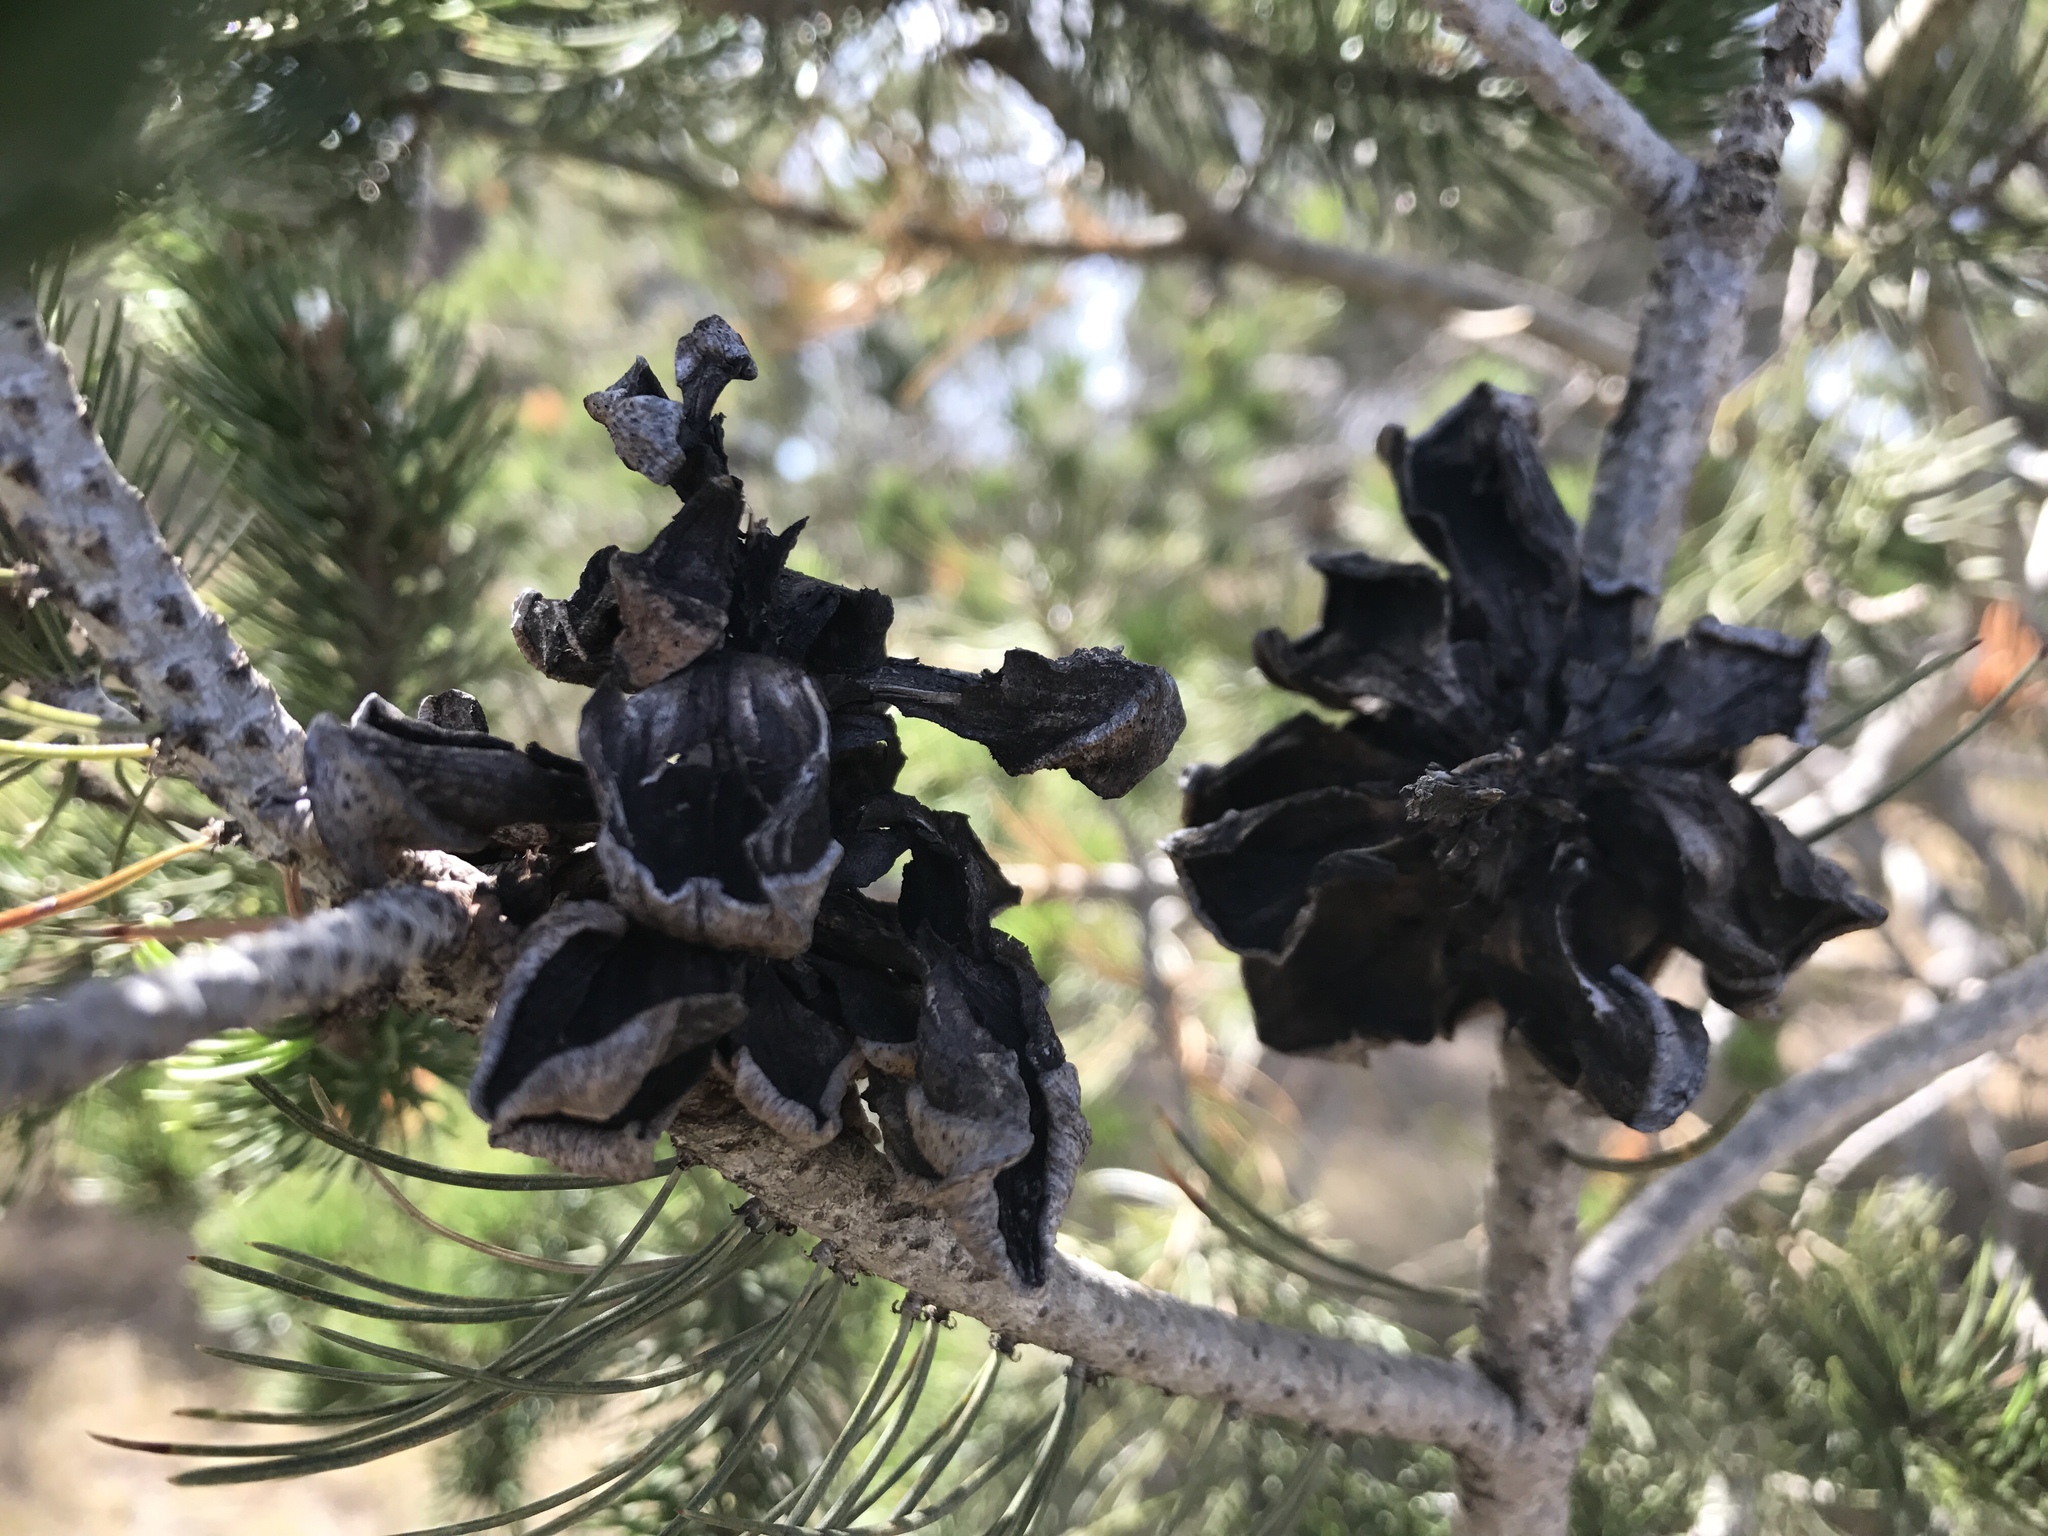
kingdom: Plantae
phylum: Tracheophyta
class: Pinopsida
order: Pinales
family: Pinaceae
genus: Pinus
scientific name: Pinus cembroides
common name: Mexican nut pine
